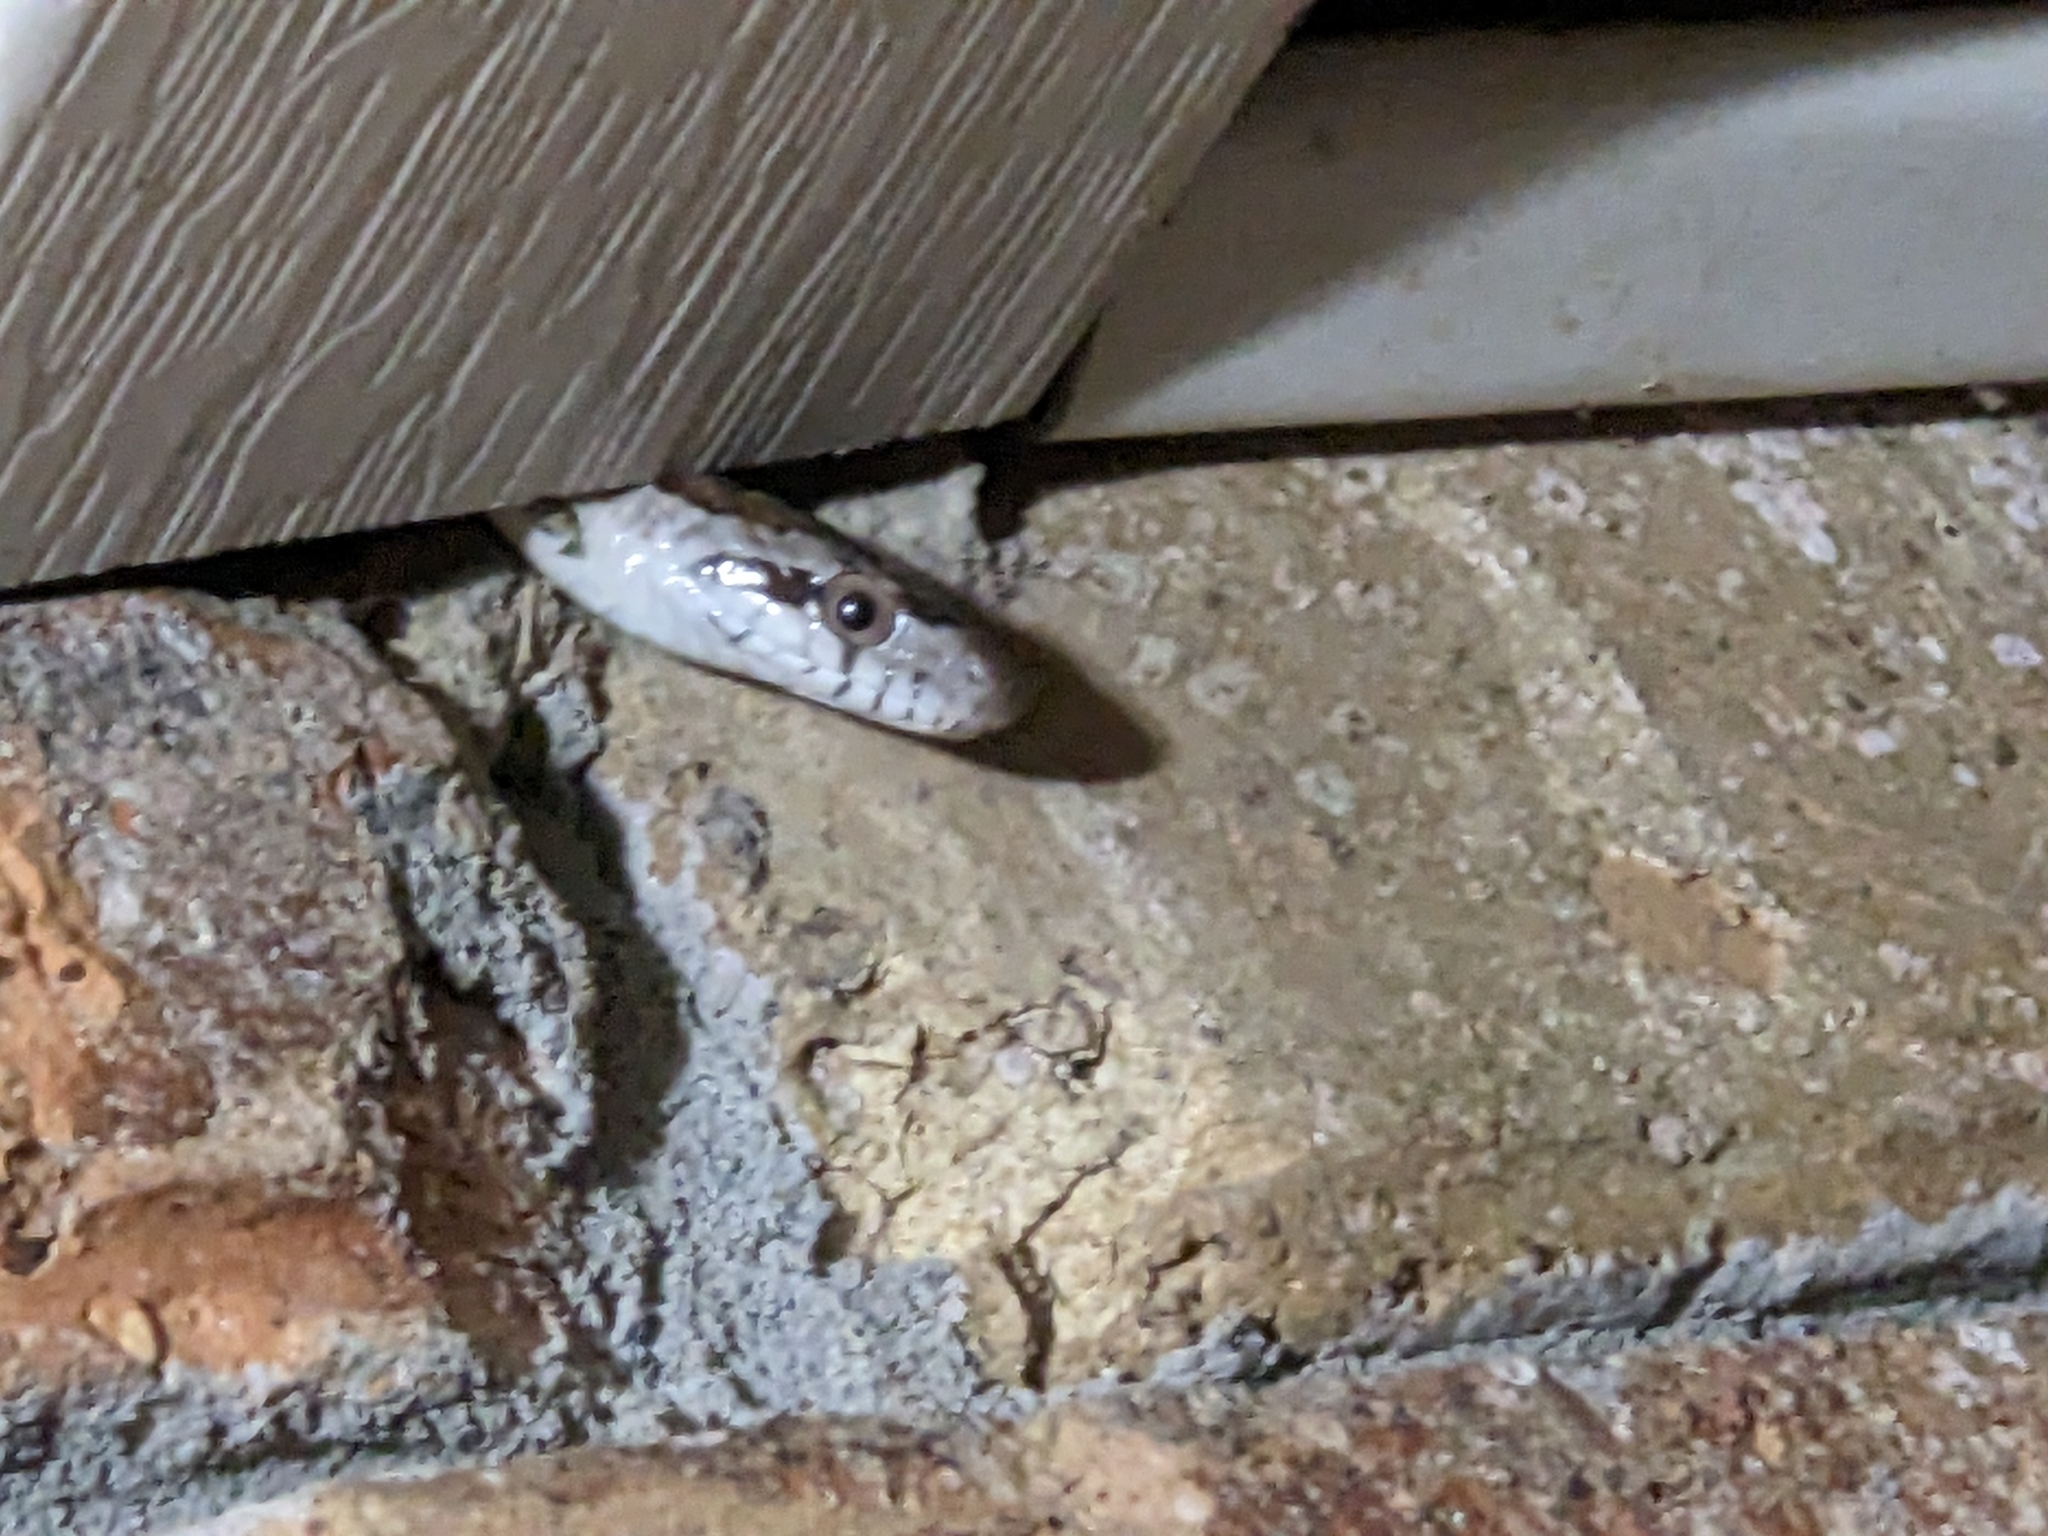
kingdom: Animalia
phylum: Chordata
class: Squamata
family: Colubridae
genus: Pantherophis
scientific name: Pantherophis spiloides
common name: Gray rat snake
